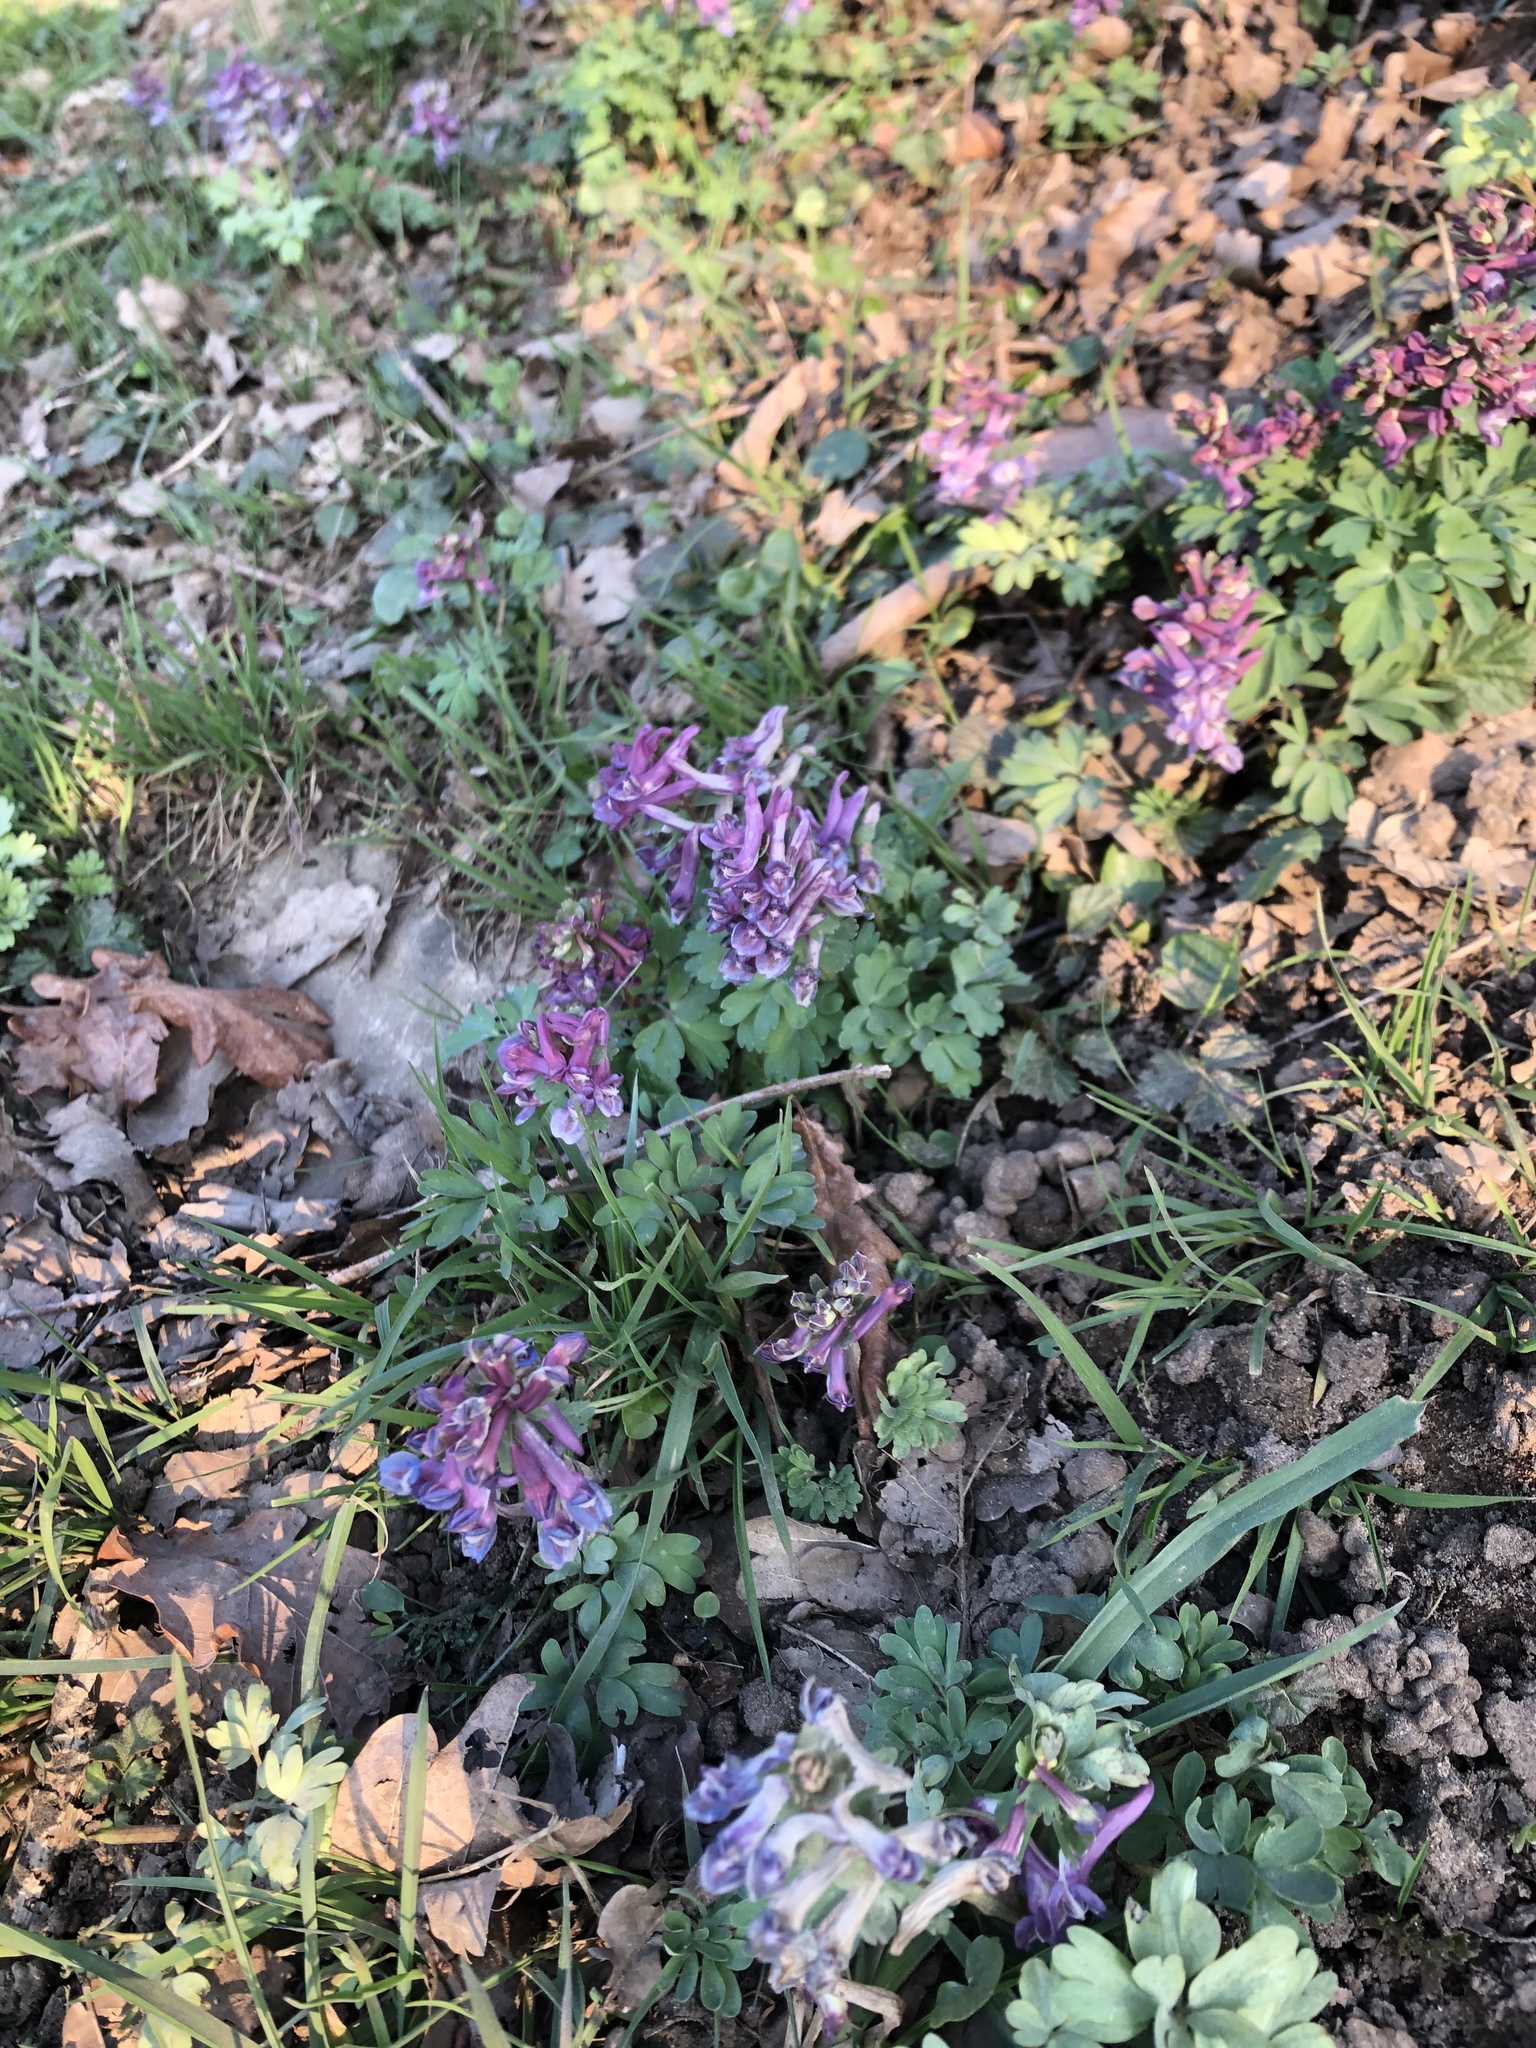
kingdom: Plantae
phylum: Tracheophyta
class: Magnoliopsida
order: Ranunculales
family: Papaveraceae
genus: Corydalis
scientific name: Corydalis solida
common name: Bird-in-a-bush
